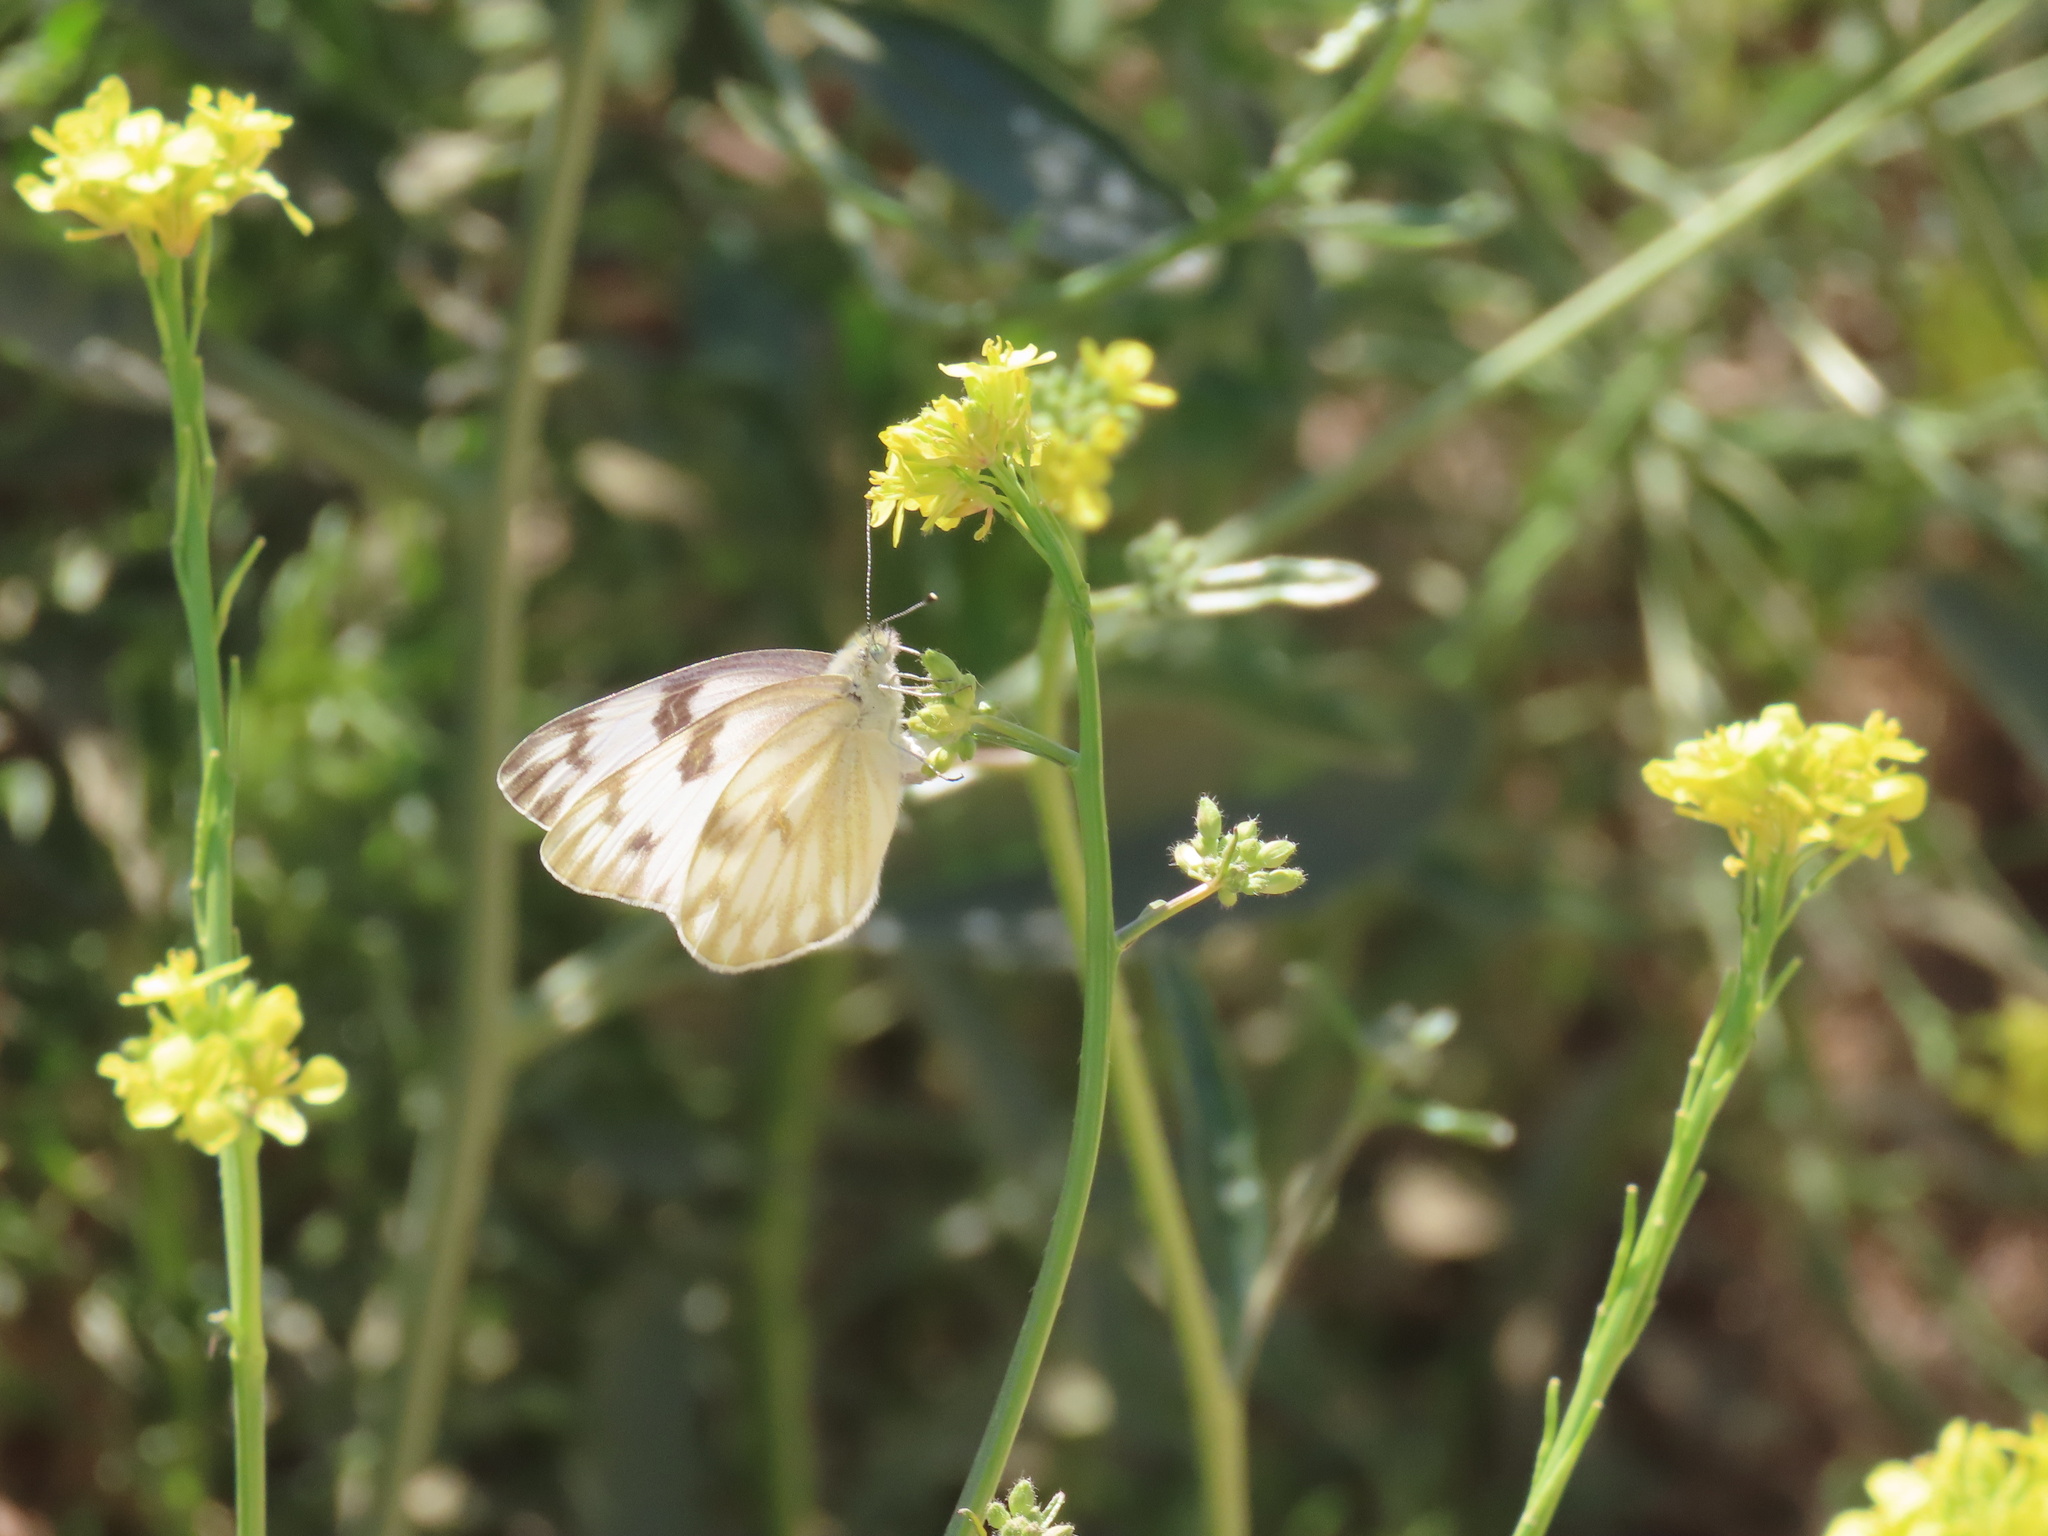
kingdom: Animalia
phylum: Arthropoda
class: Insecta
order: Lepidoptera
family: Pieridae
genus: Pontia
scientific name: Pontia protodice
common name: Checkered white
